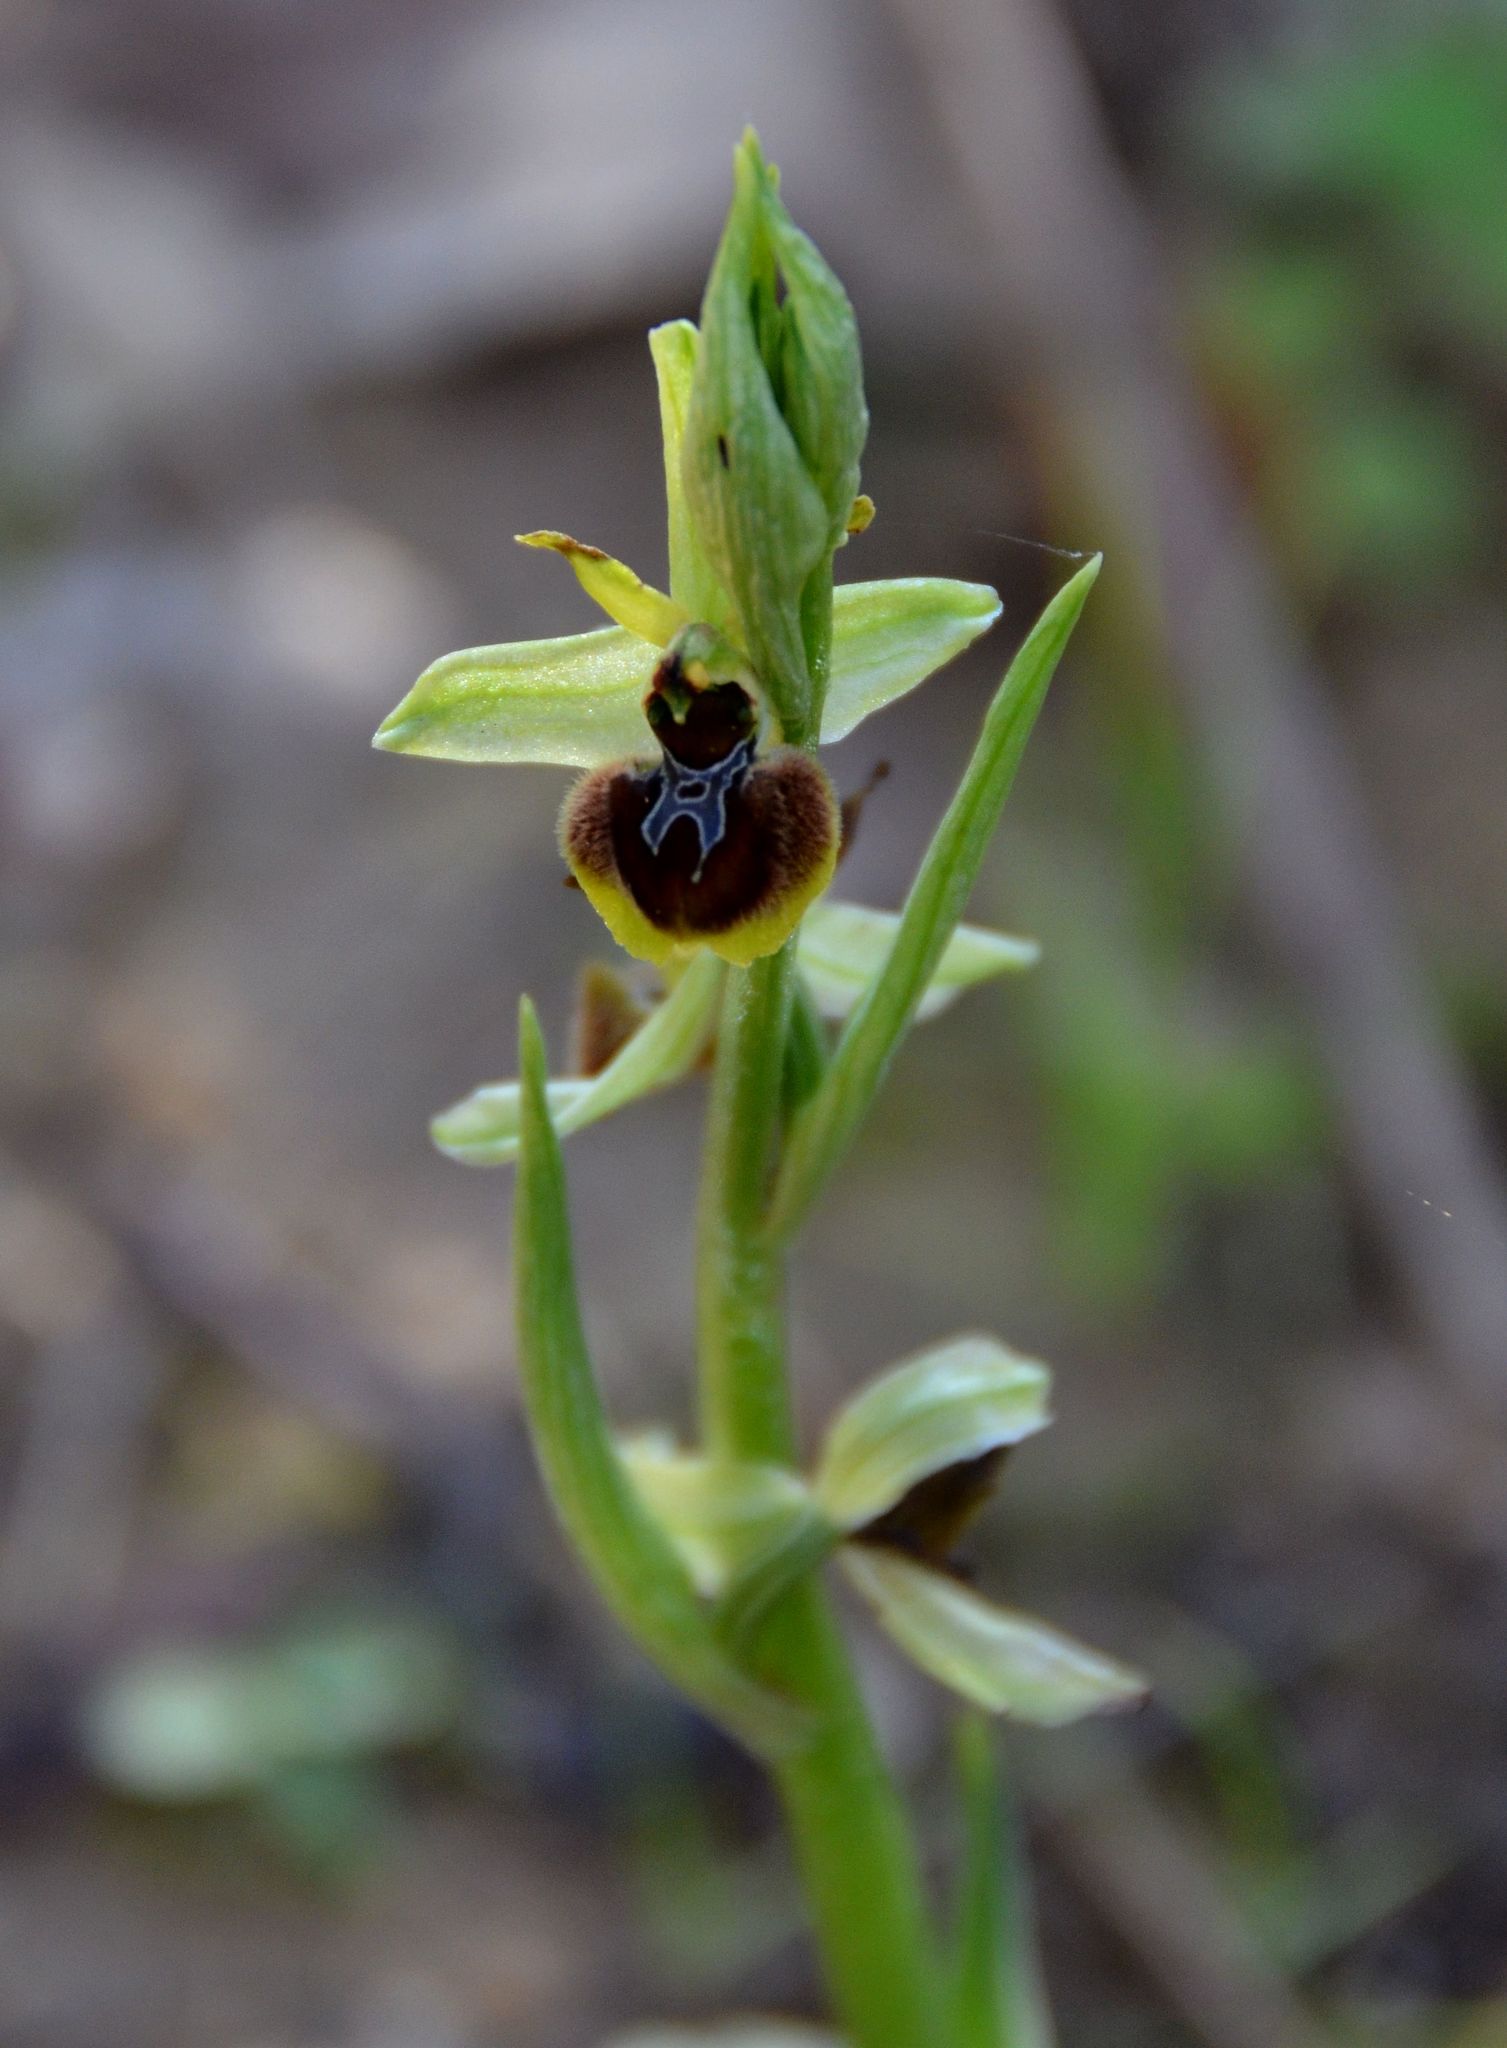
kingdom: Plantae
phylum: Tracheophyta
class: Liliopsida
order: Asparagales
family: Orchidaceae
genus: Ophrys
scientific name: Ophrys sphegodes
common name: Early spider-orchid
